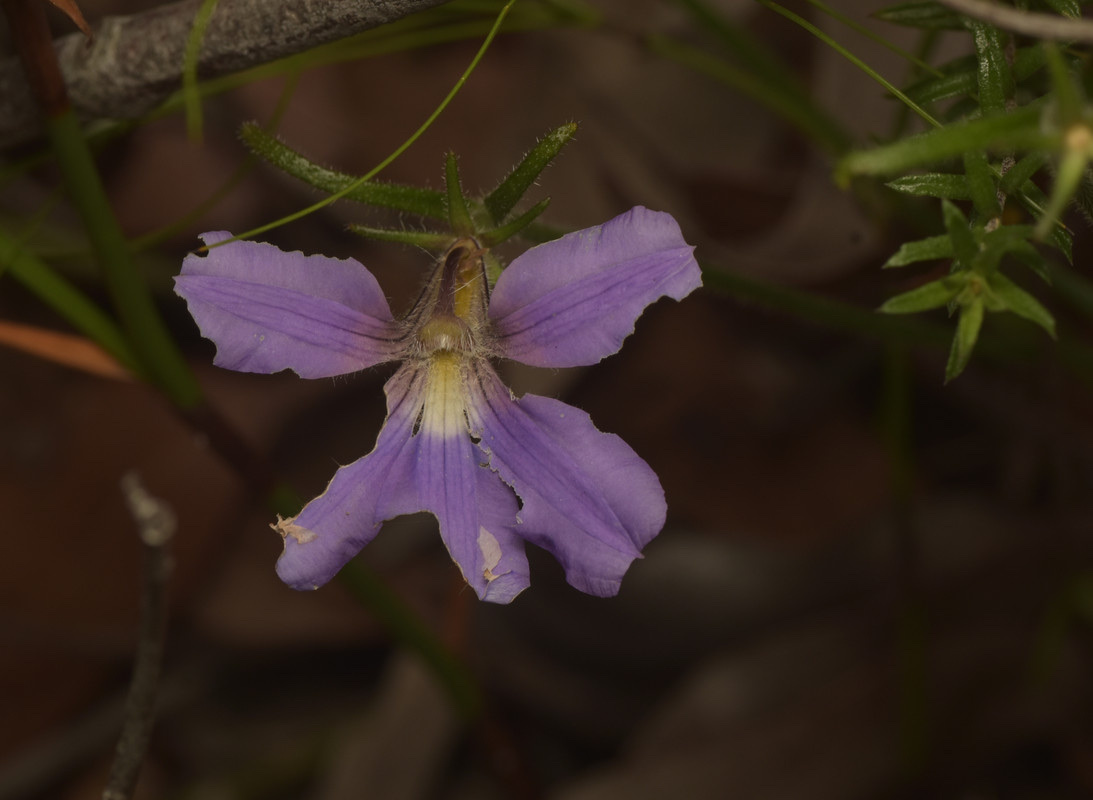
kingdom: Plantae
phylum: Tracheophyta
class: Magnoliopsida
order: Asterales
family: Goodeniaceae
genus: Scaevola
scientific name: Scaevola ramosissima
